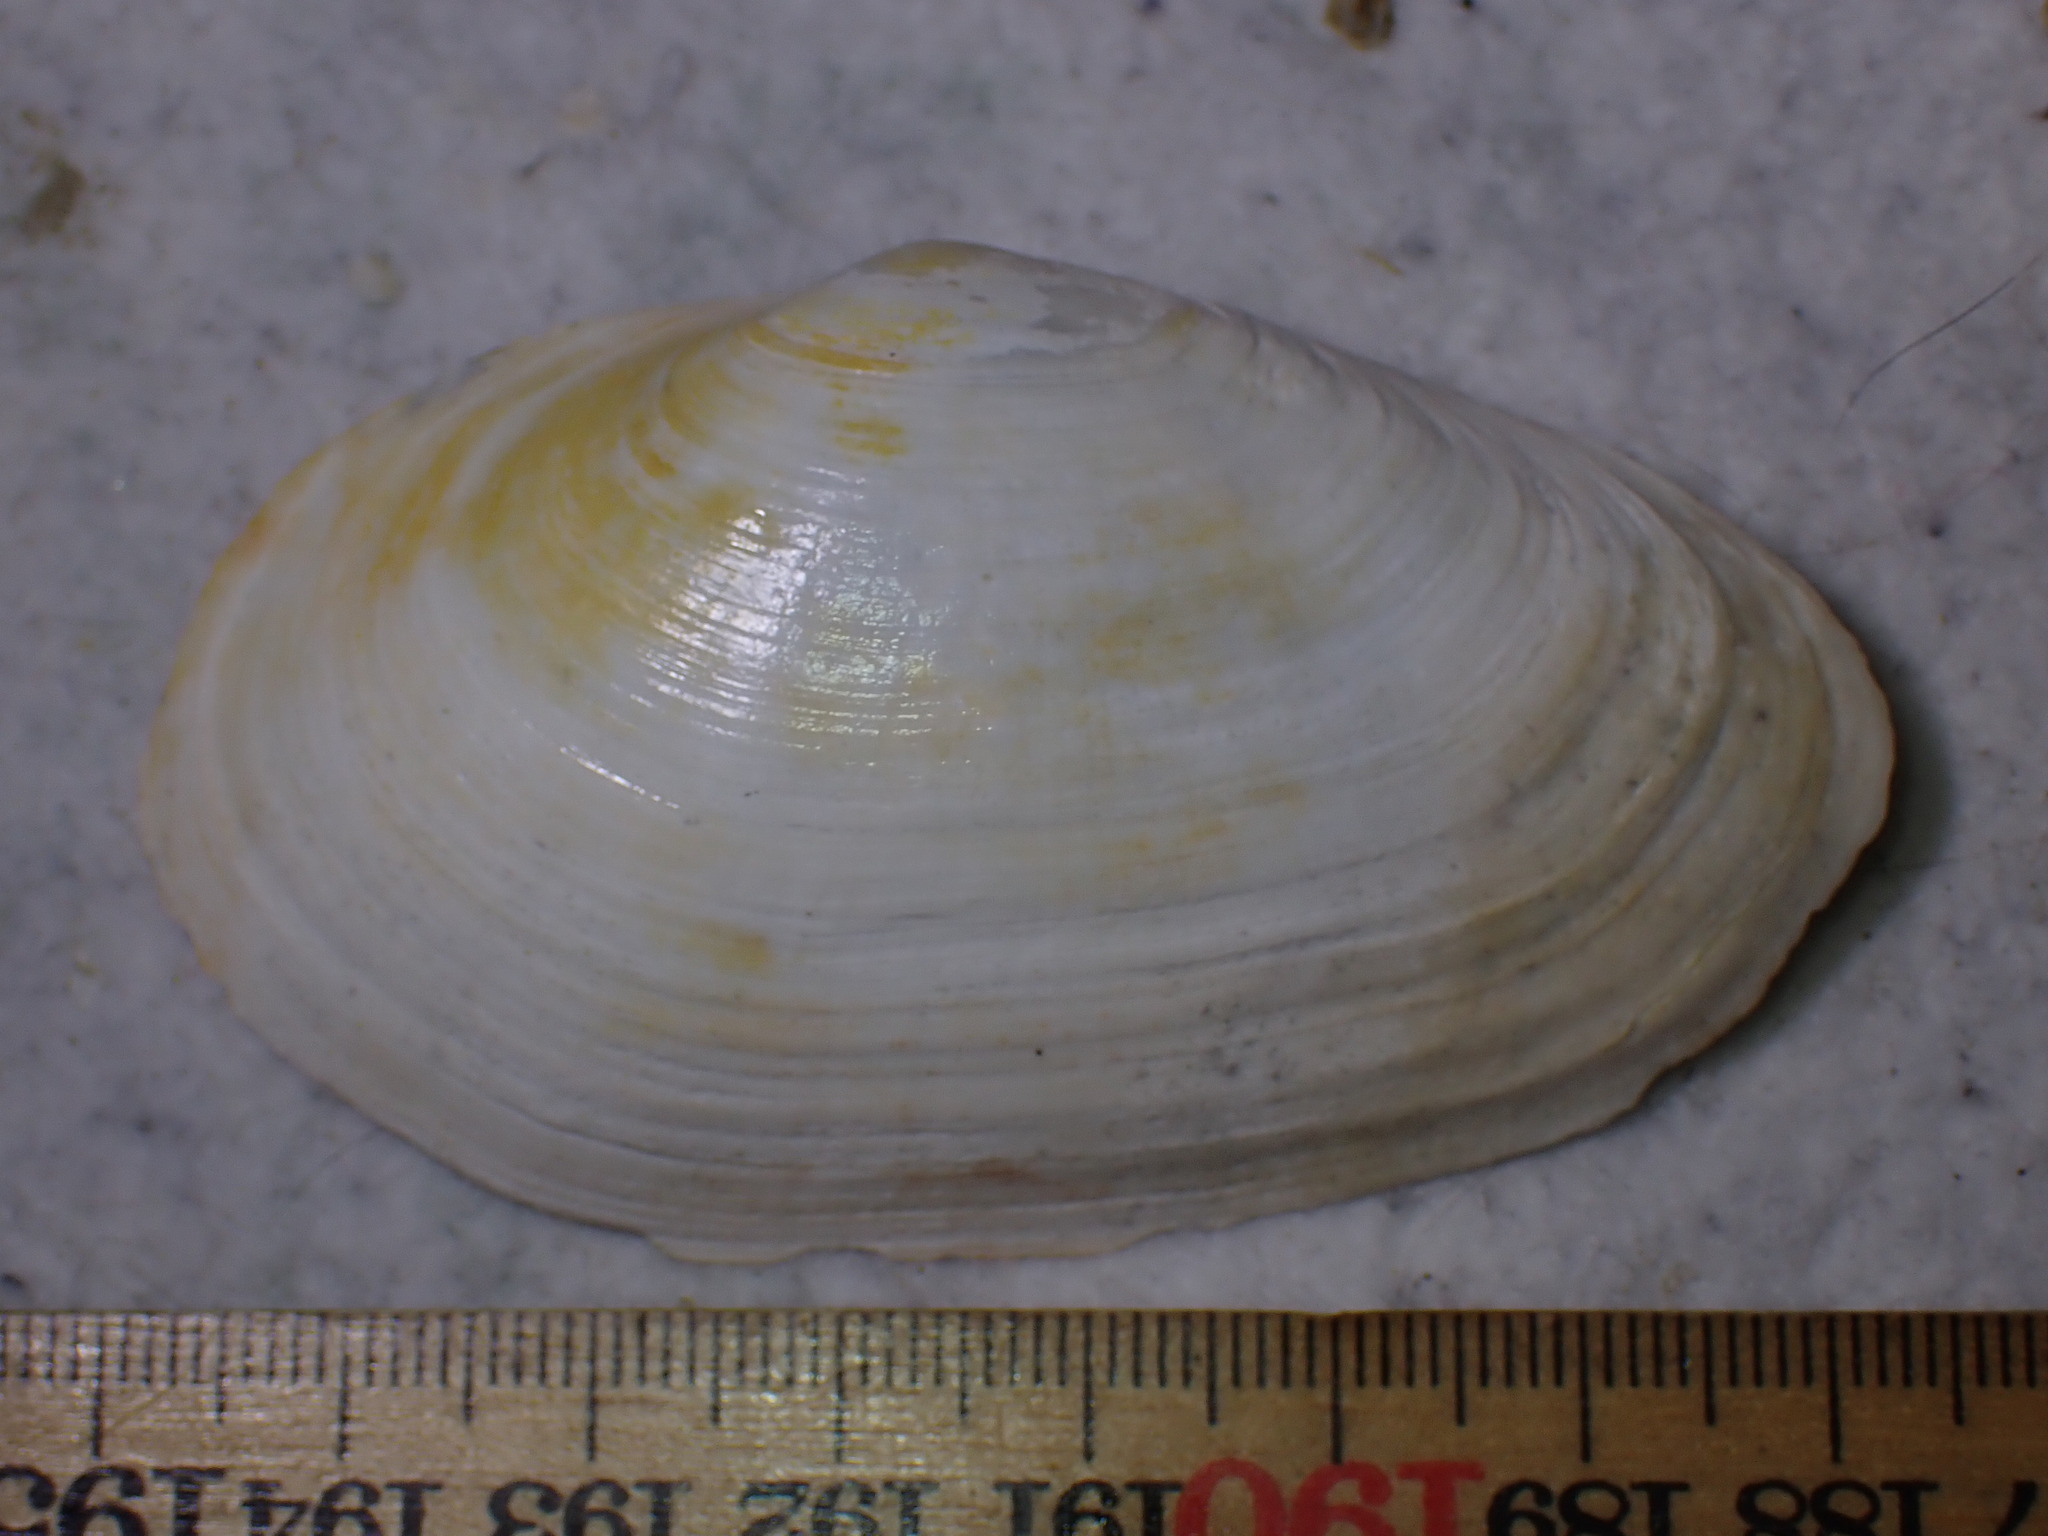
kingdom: Animalia
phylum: Mollusca
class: Bivalvia
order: Myida
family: Myidae
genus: Mya
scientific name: Mya arenaria
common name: Soft-shelled clam
